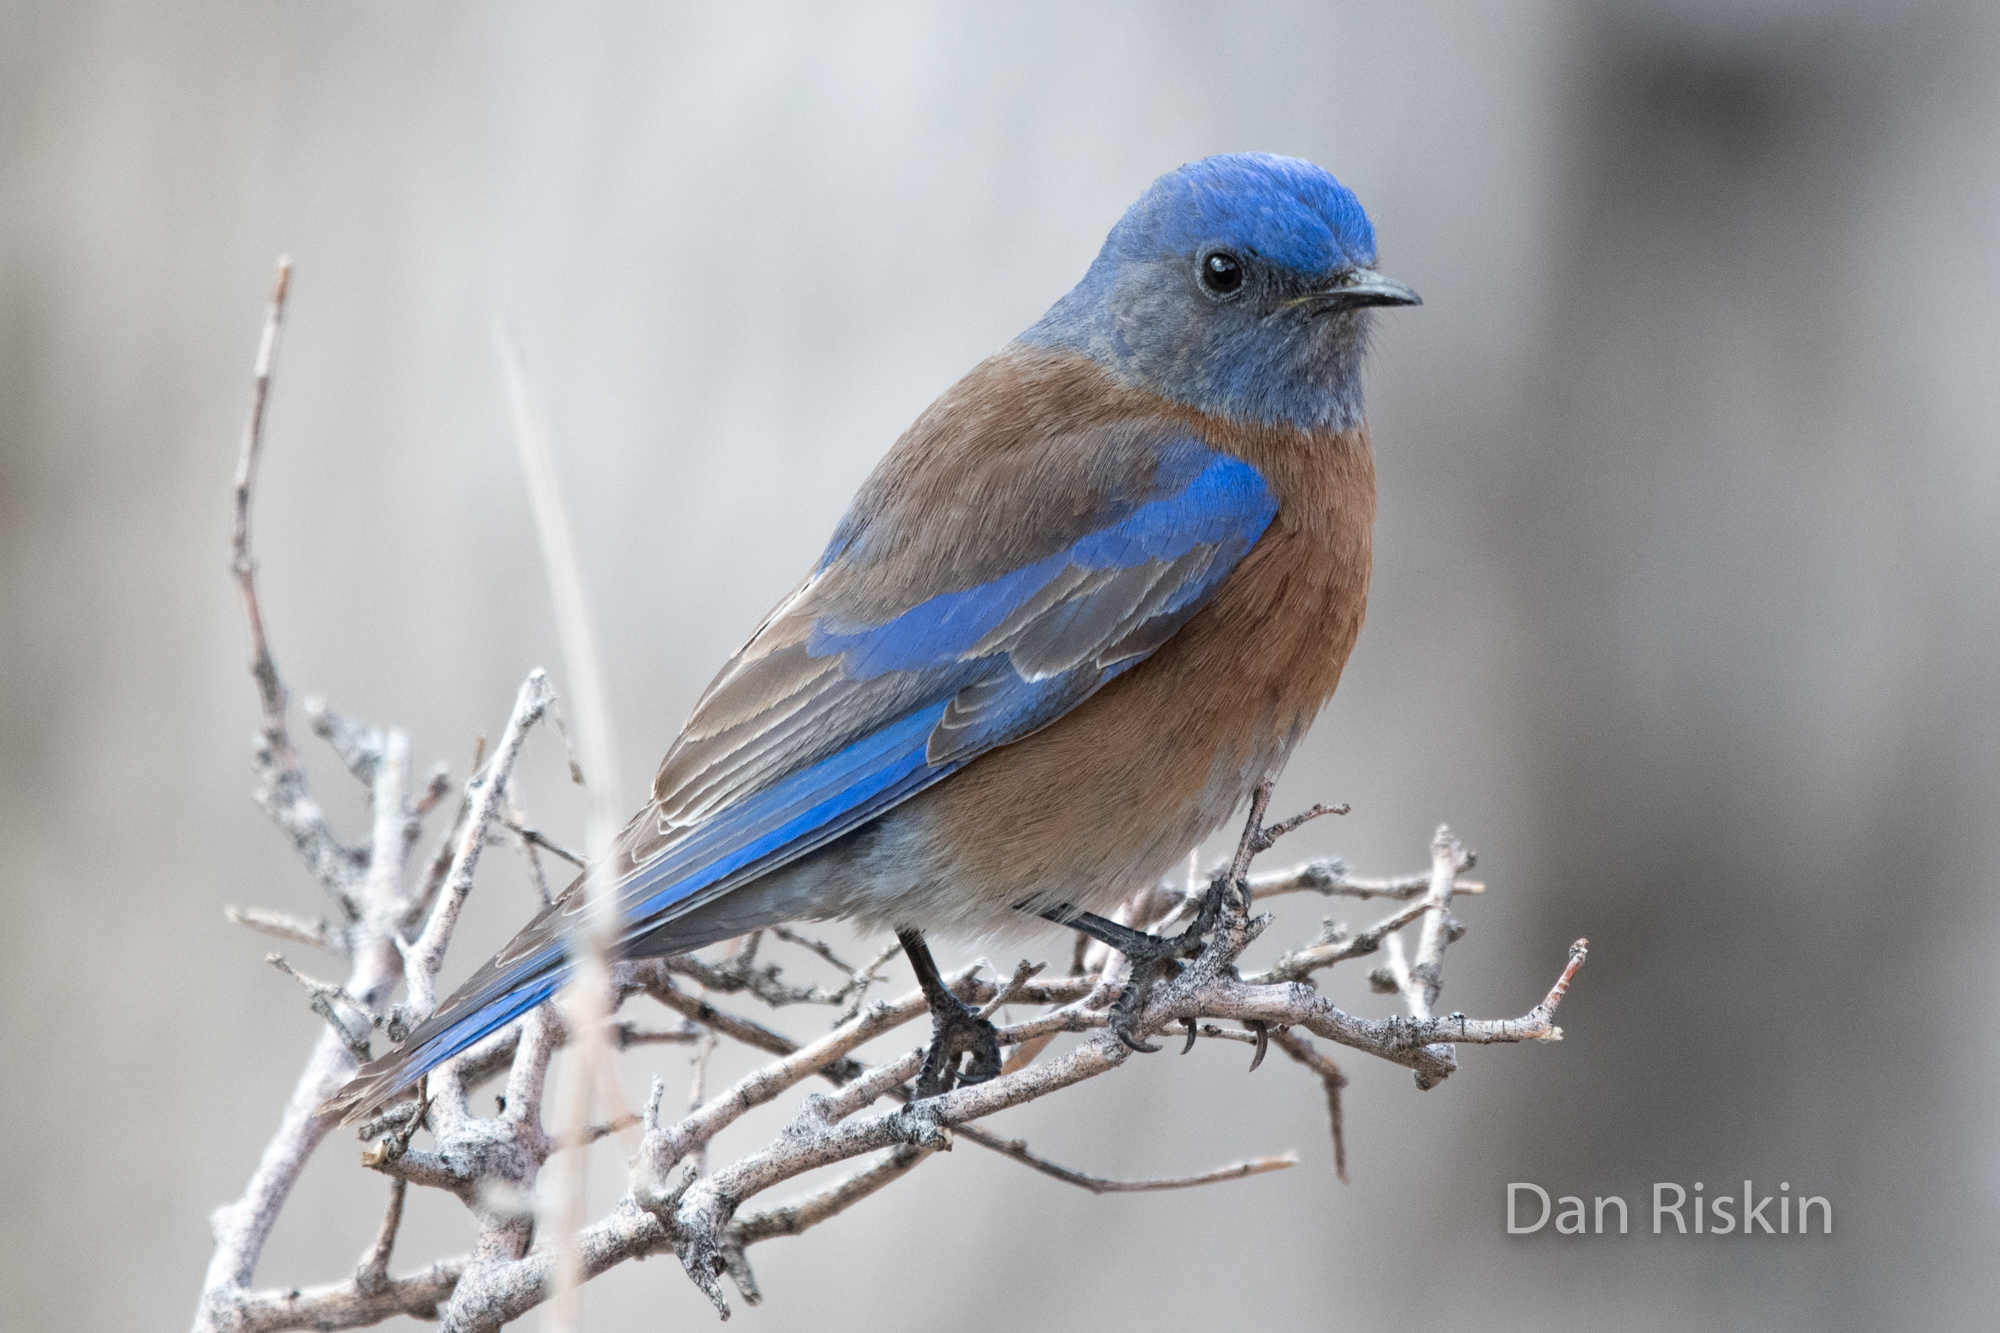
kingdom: Animalia
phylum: Chordata
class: Aves
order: Passeriformes
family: Turdidae
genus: Sialia
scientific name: Sialia mexicana
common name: Western bluebird
